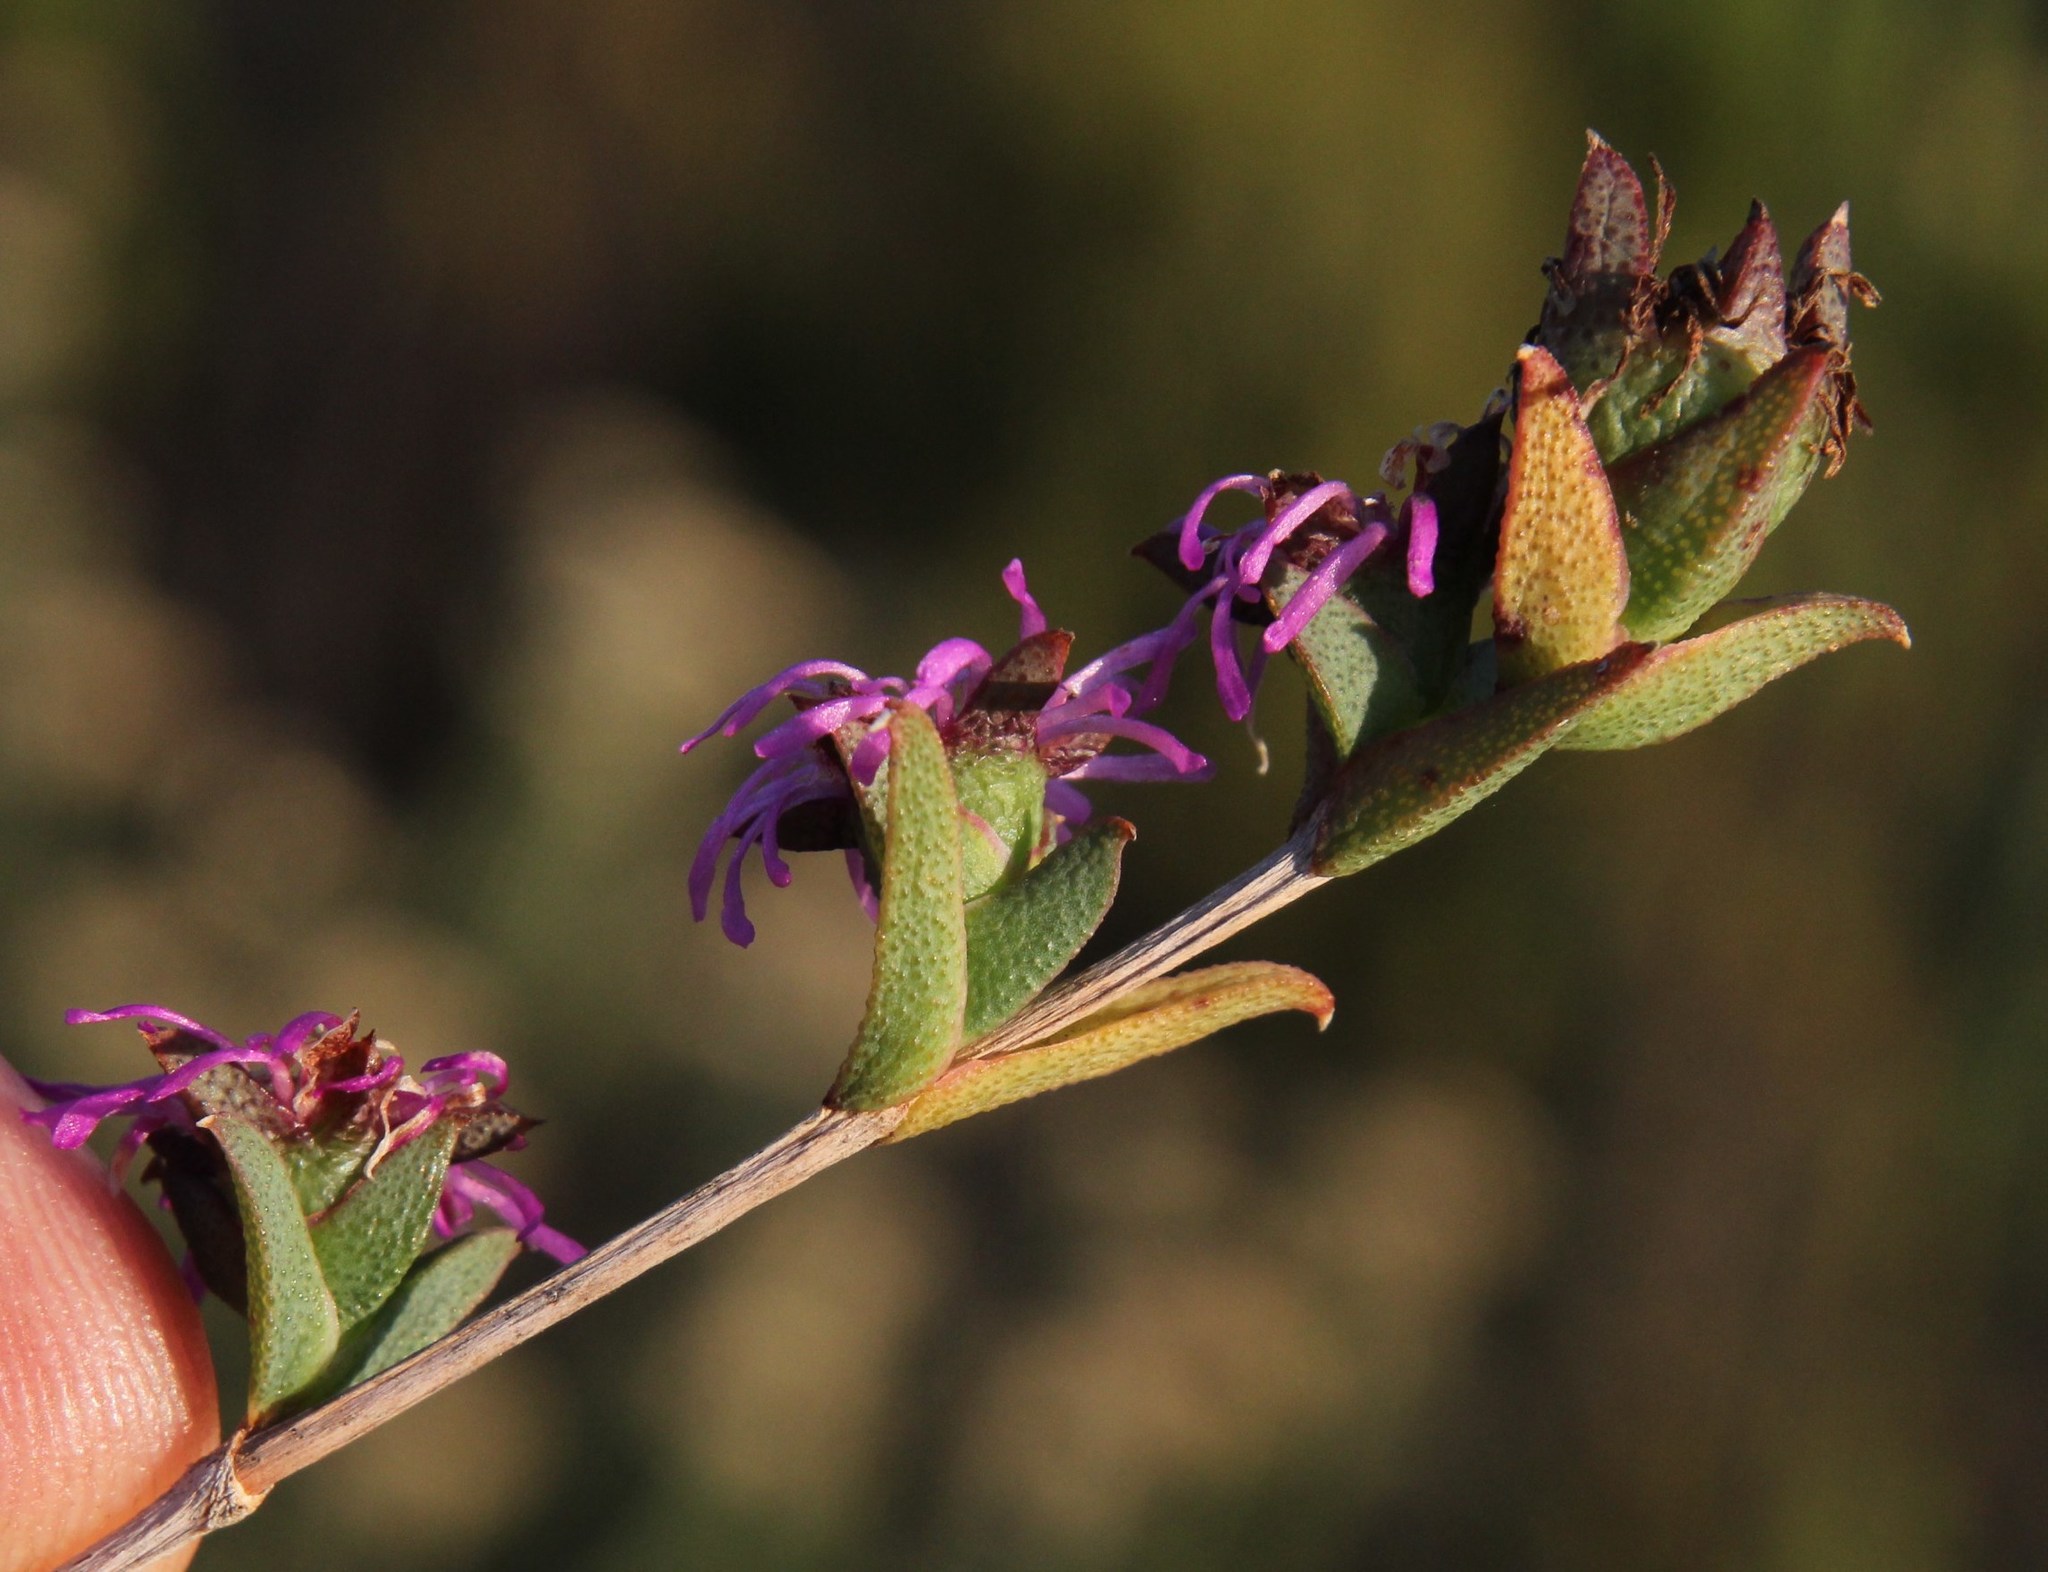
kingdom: Plantae
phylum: Tracheophyta
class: Magnoliopsida
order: Caryophyllales
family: Aizoaceae
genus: Erepsia
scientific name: Erepsia bracteata
